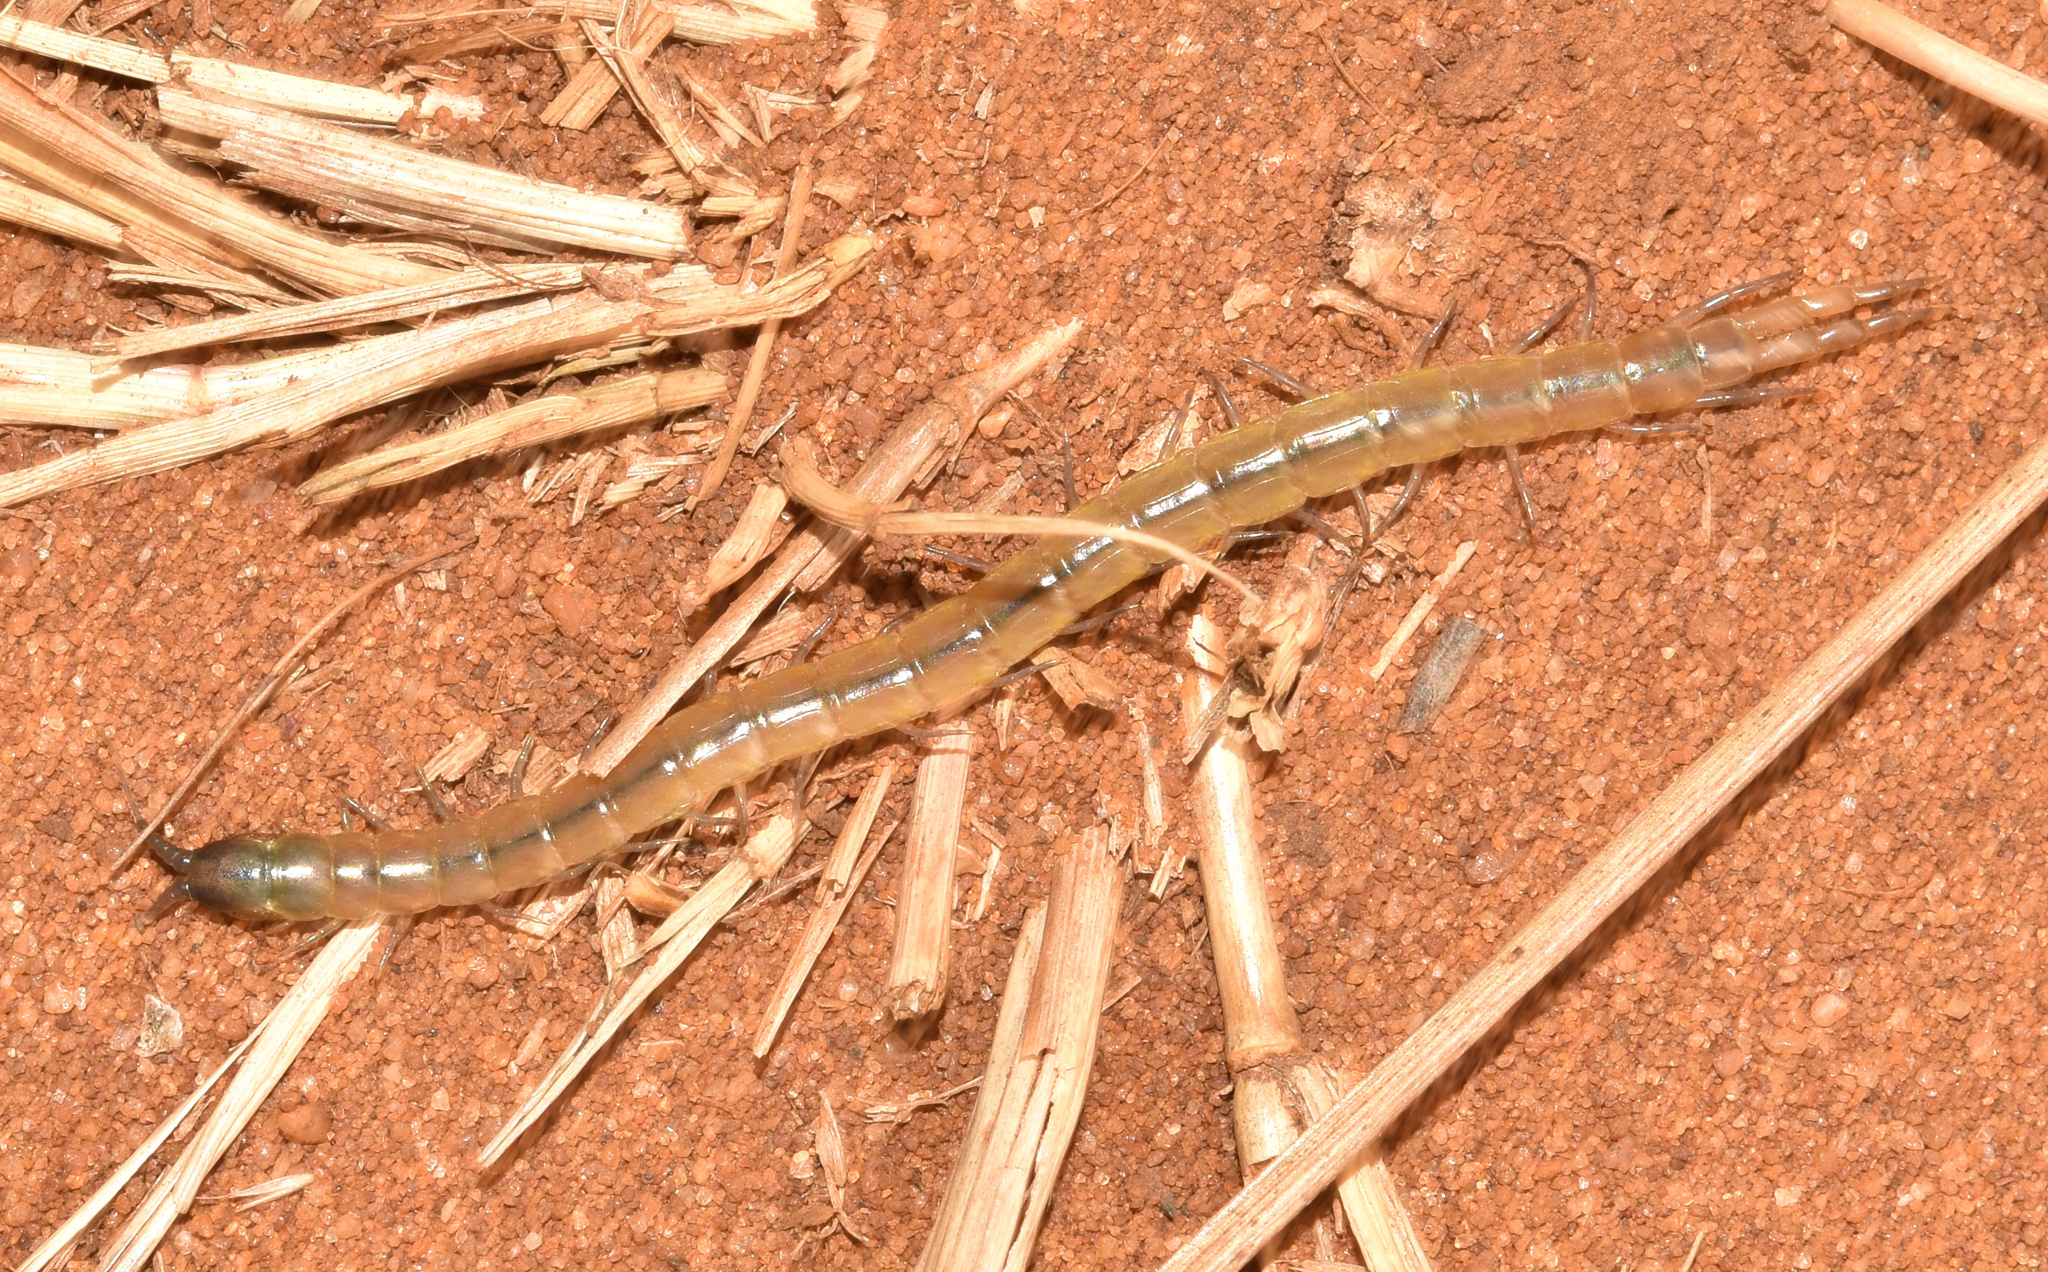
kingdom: Animalia
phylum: Arthropoda
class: Chilopoda
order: Scolopendromorpha
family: Scolopendridae
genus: Arthrorhabdus
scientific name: Arthrorhabdus formosus
